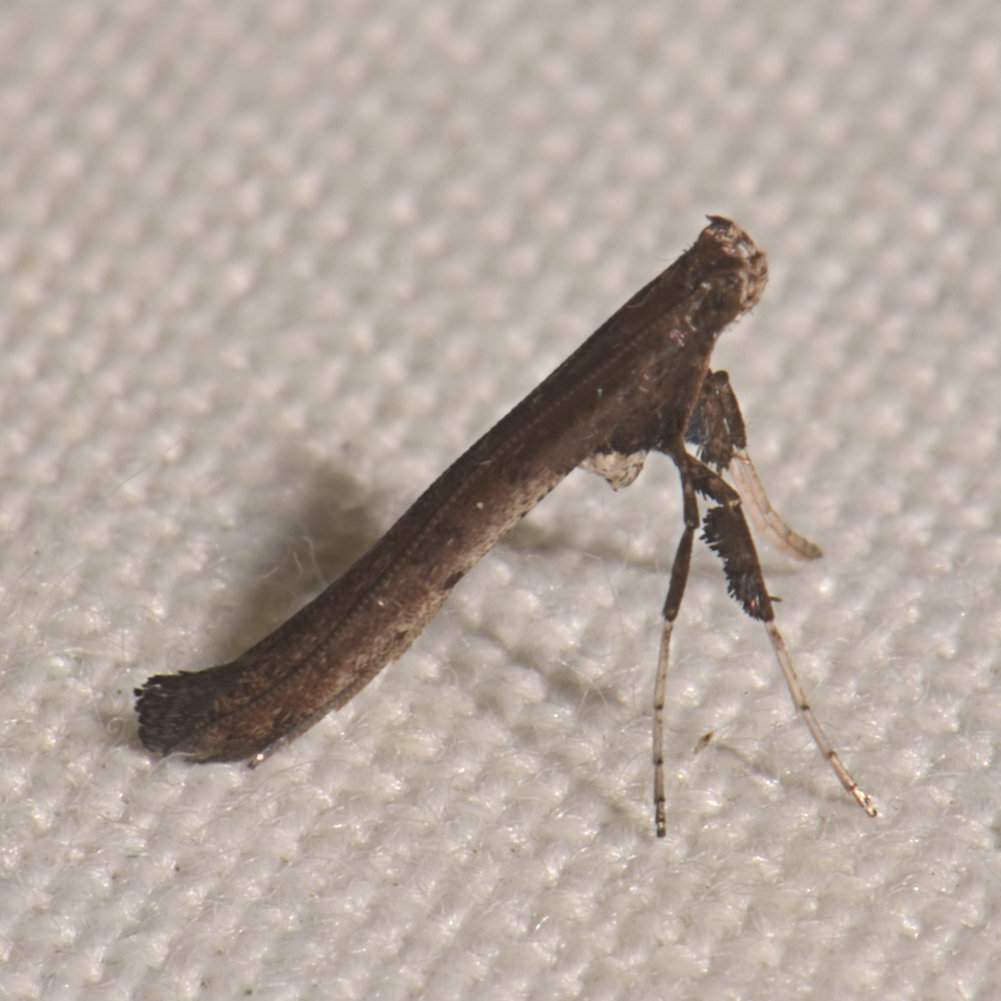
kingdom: Animalia
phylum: Arthropoda
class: Insecta
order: Lepidoptera
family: Gracillariidae
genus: Caloptilia
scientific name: Caloptilia rhoifoliella
